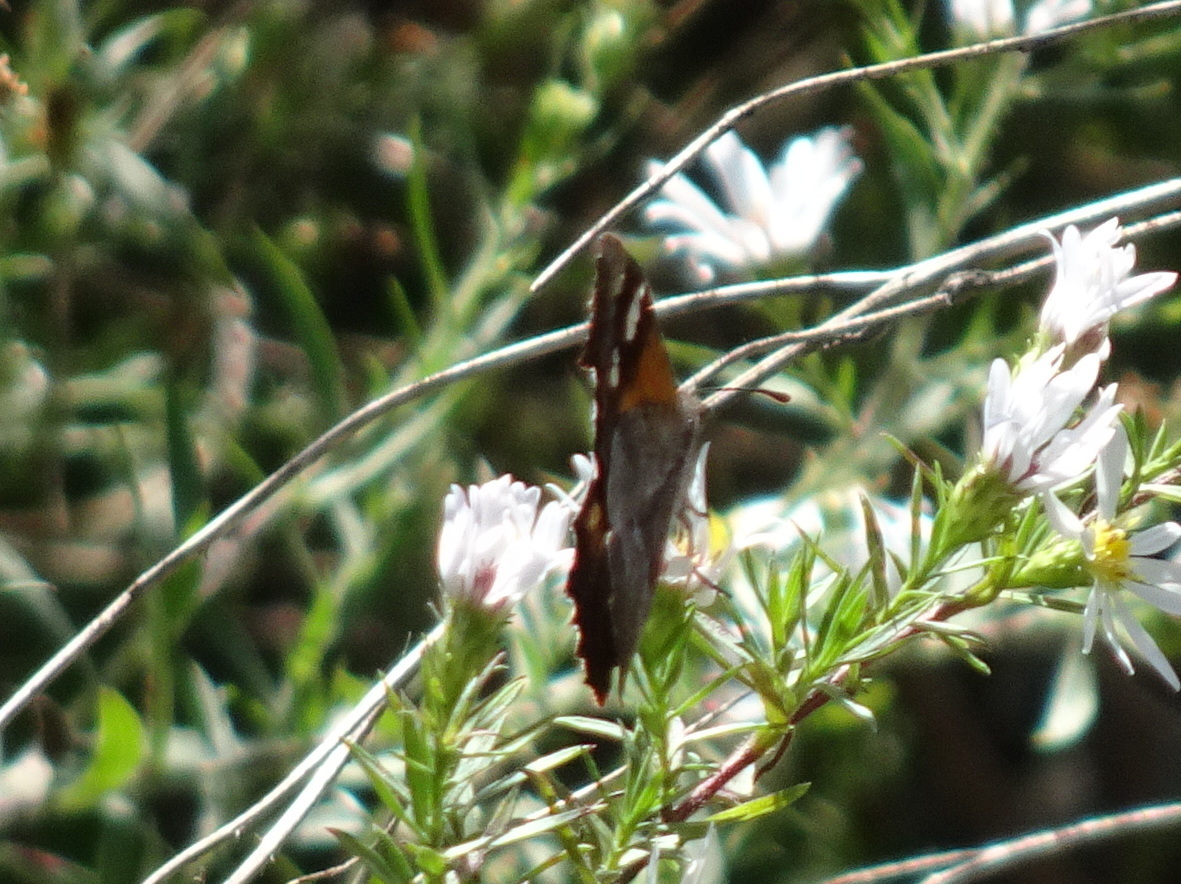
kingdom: Animalia
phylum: Arthropoda
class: Insecta
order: Lepidoptera
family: Nymphalidae
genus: Libytheana
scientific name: Libytheana carinenta
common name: American snout
